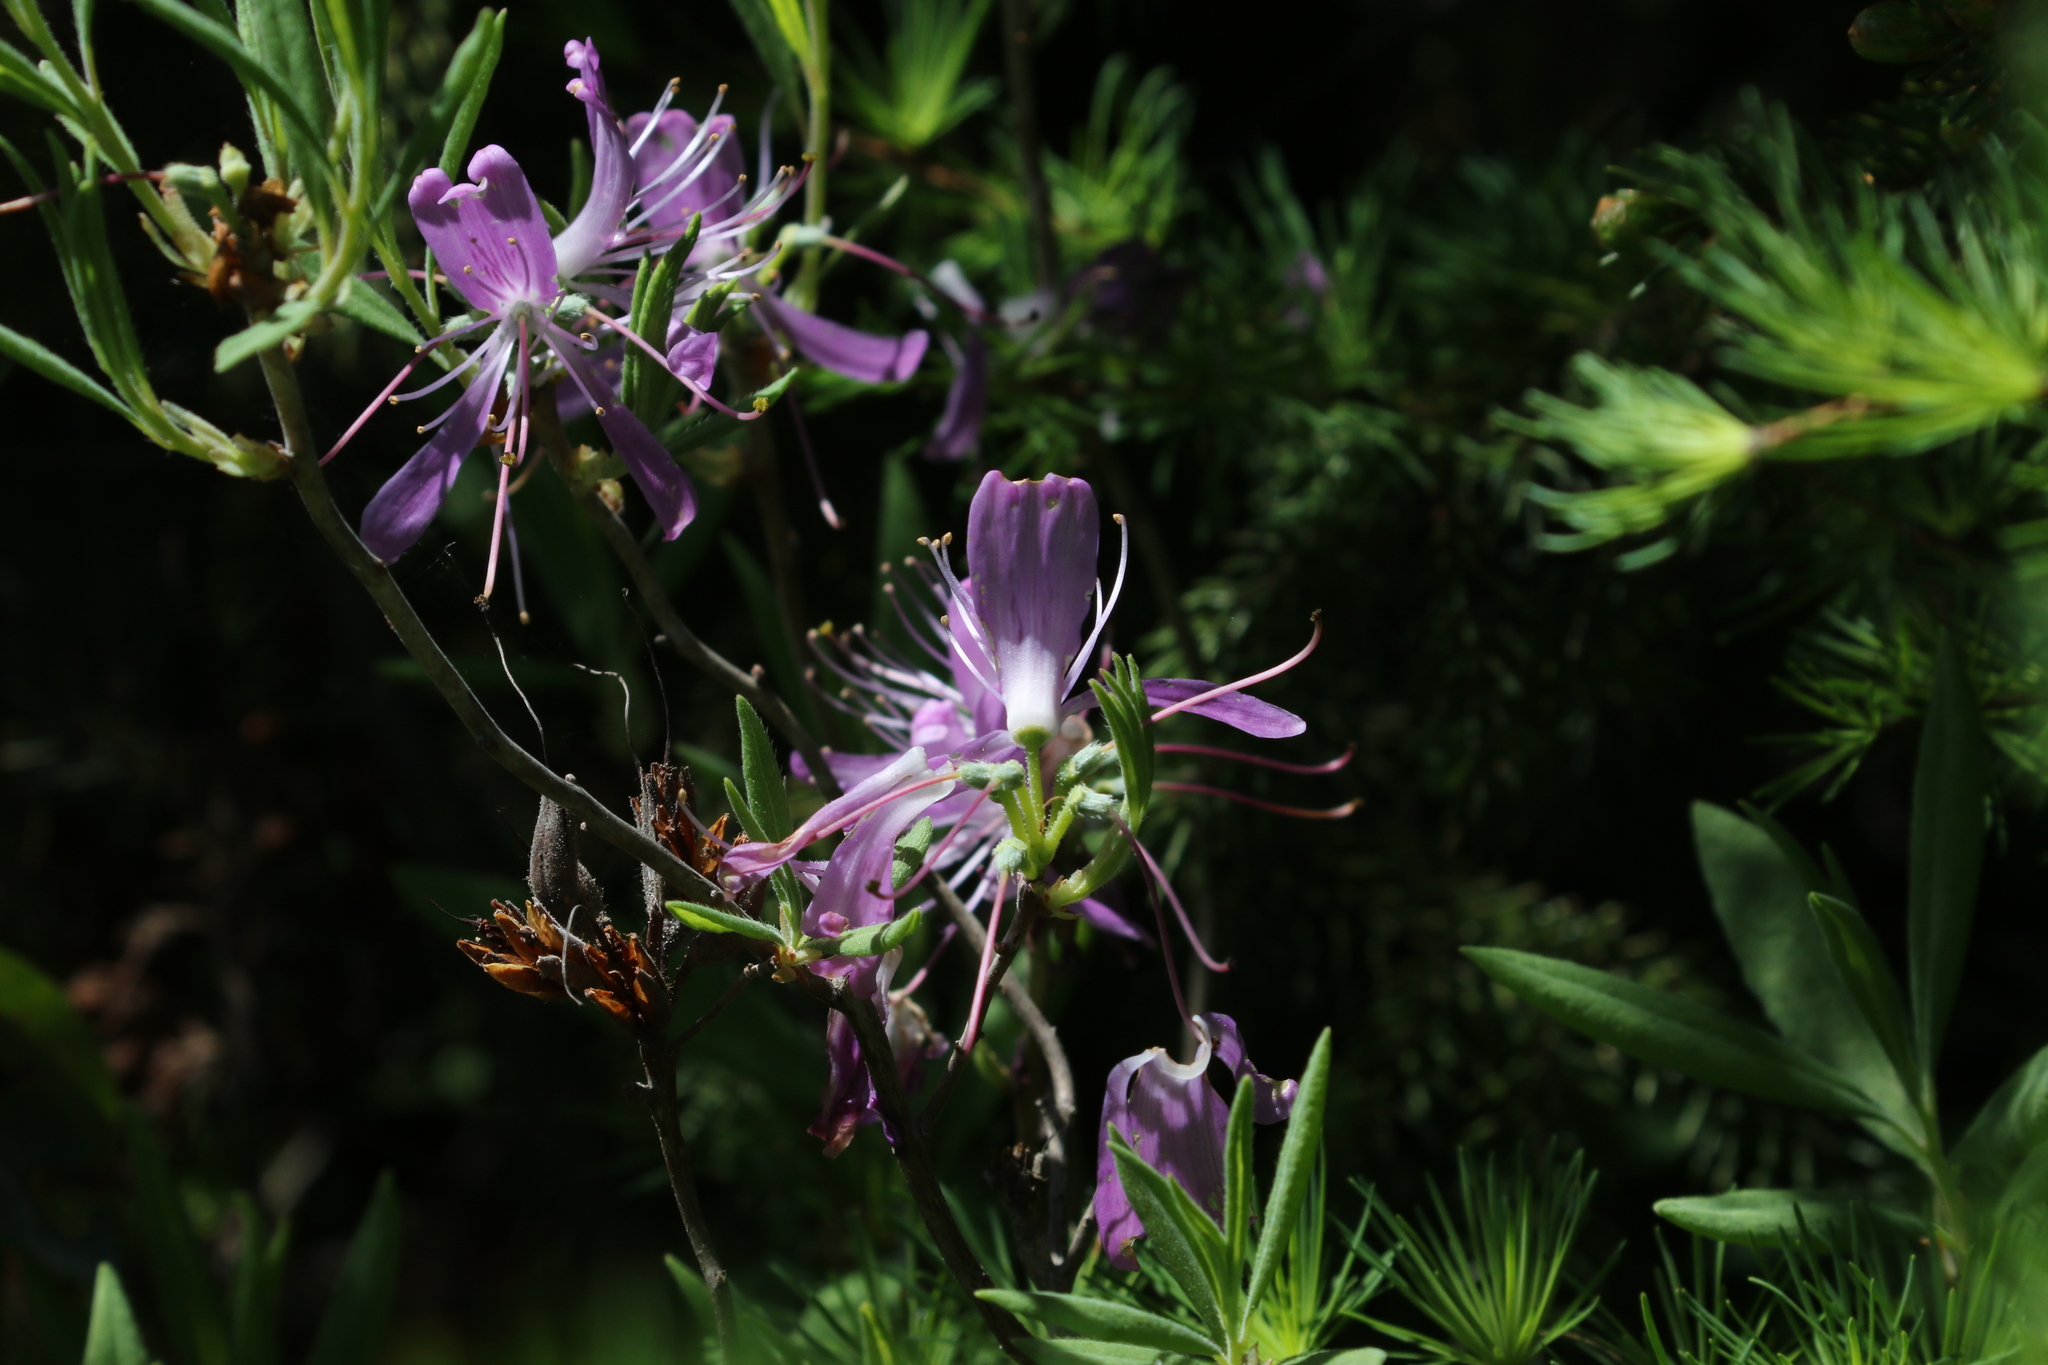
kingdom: Plantae
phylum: Tracheophyta
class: Magnoliopsida
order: Ericales
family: Ericaceae
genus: Rhododendron
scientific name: Rhododendron canadense
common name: Rhodora
